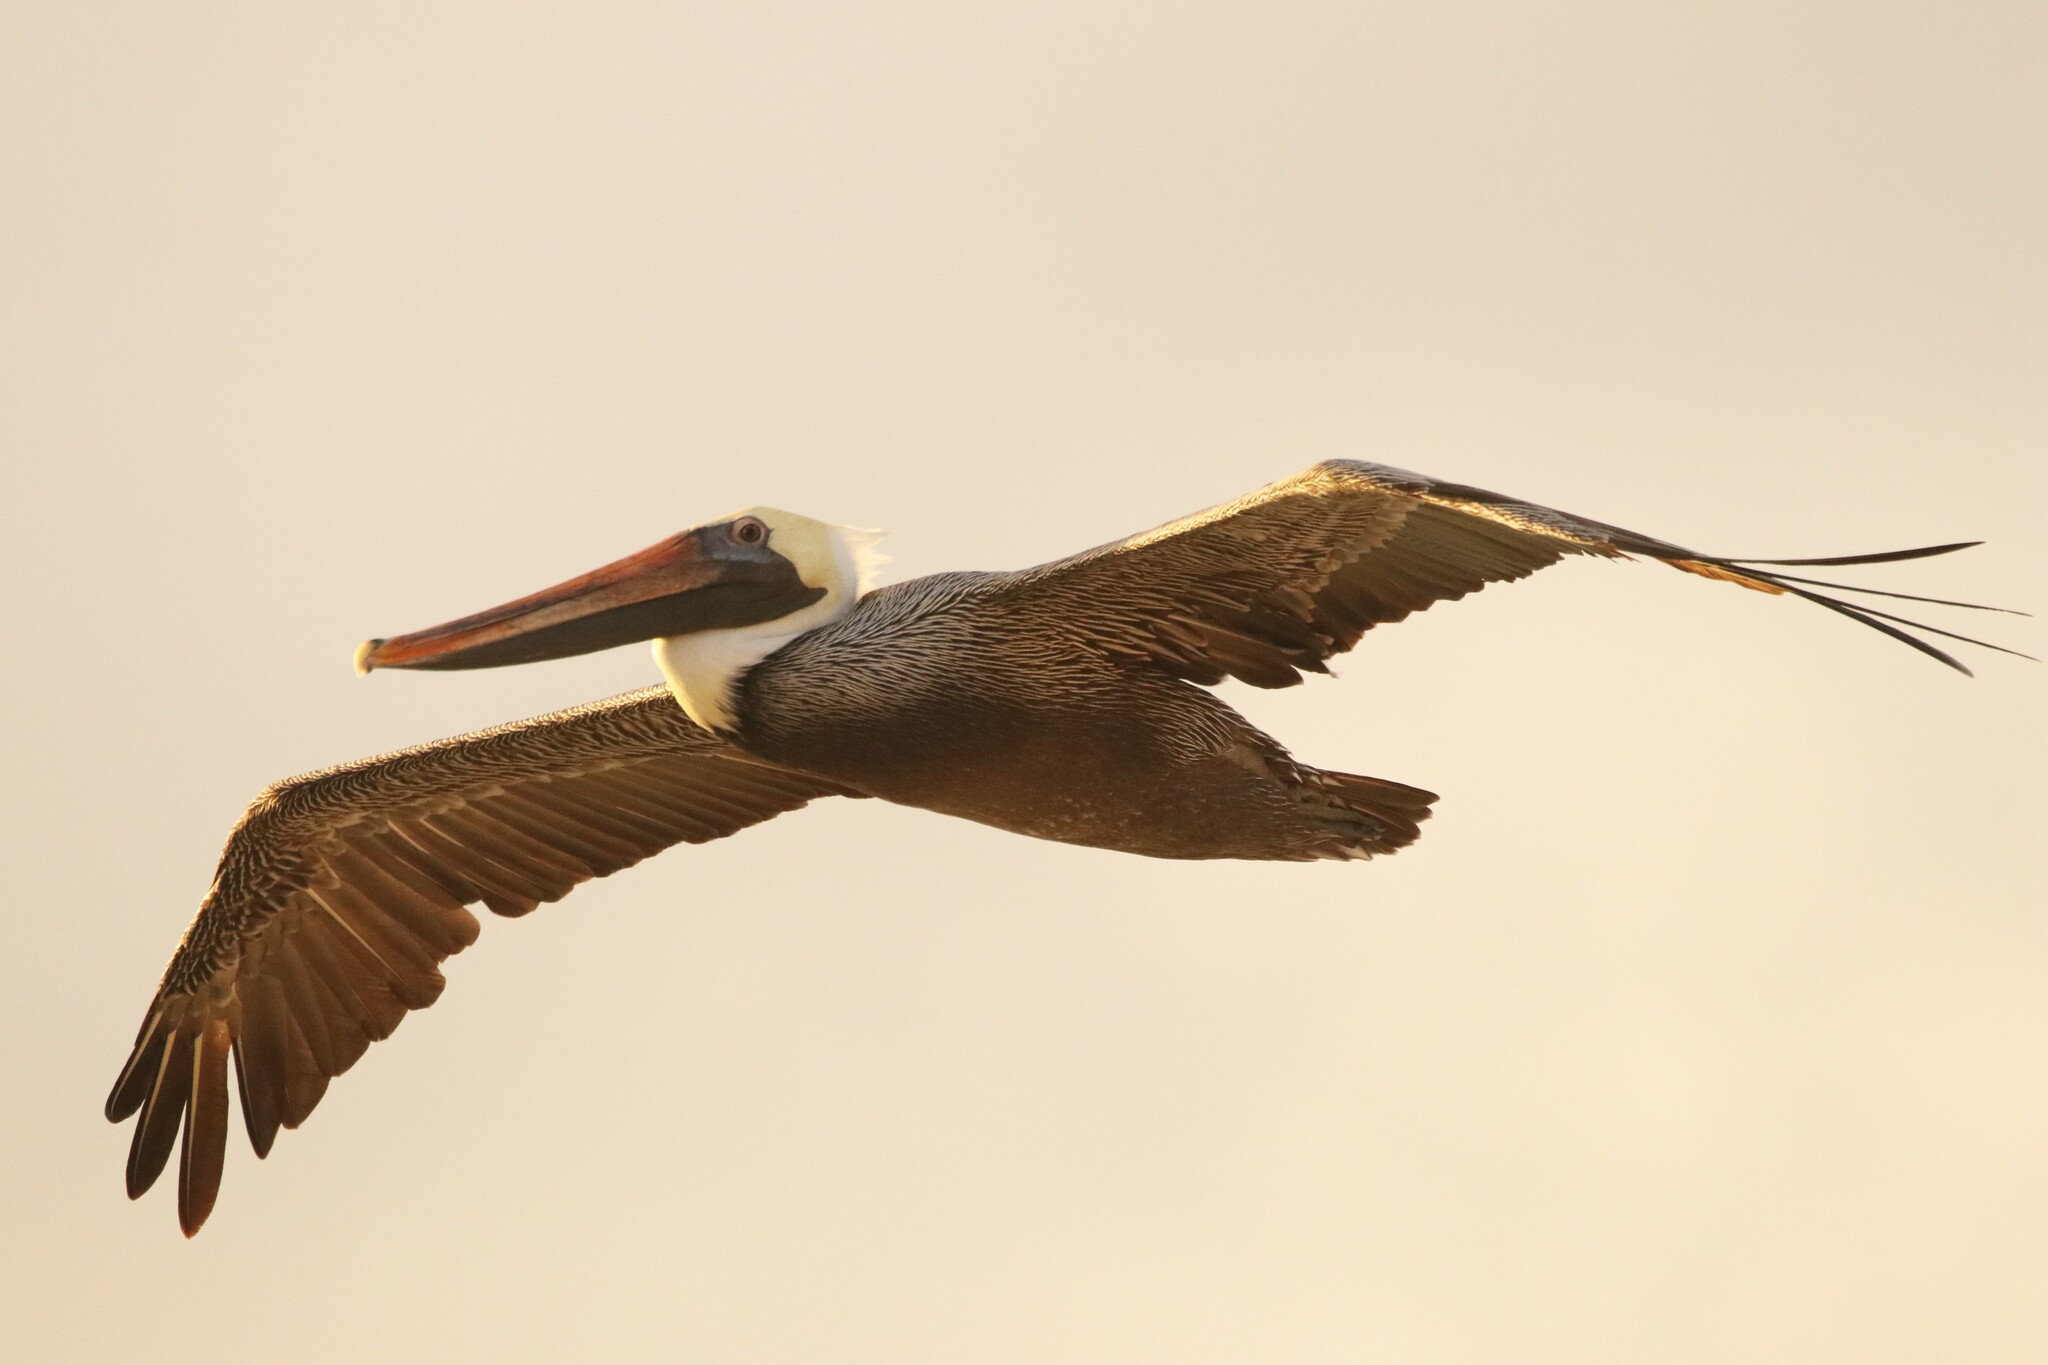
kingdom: Animalia
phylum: Chordata
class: Aves
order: Pelecaniformes
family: Pelecanidae
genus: Pelecanus
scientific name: Pelecanus occidentalis
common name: Brown pelican
